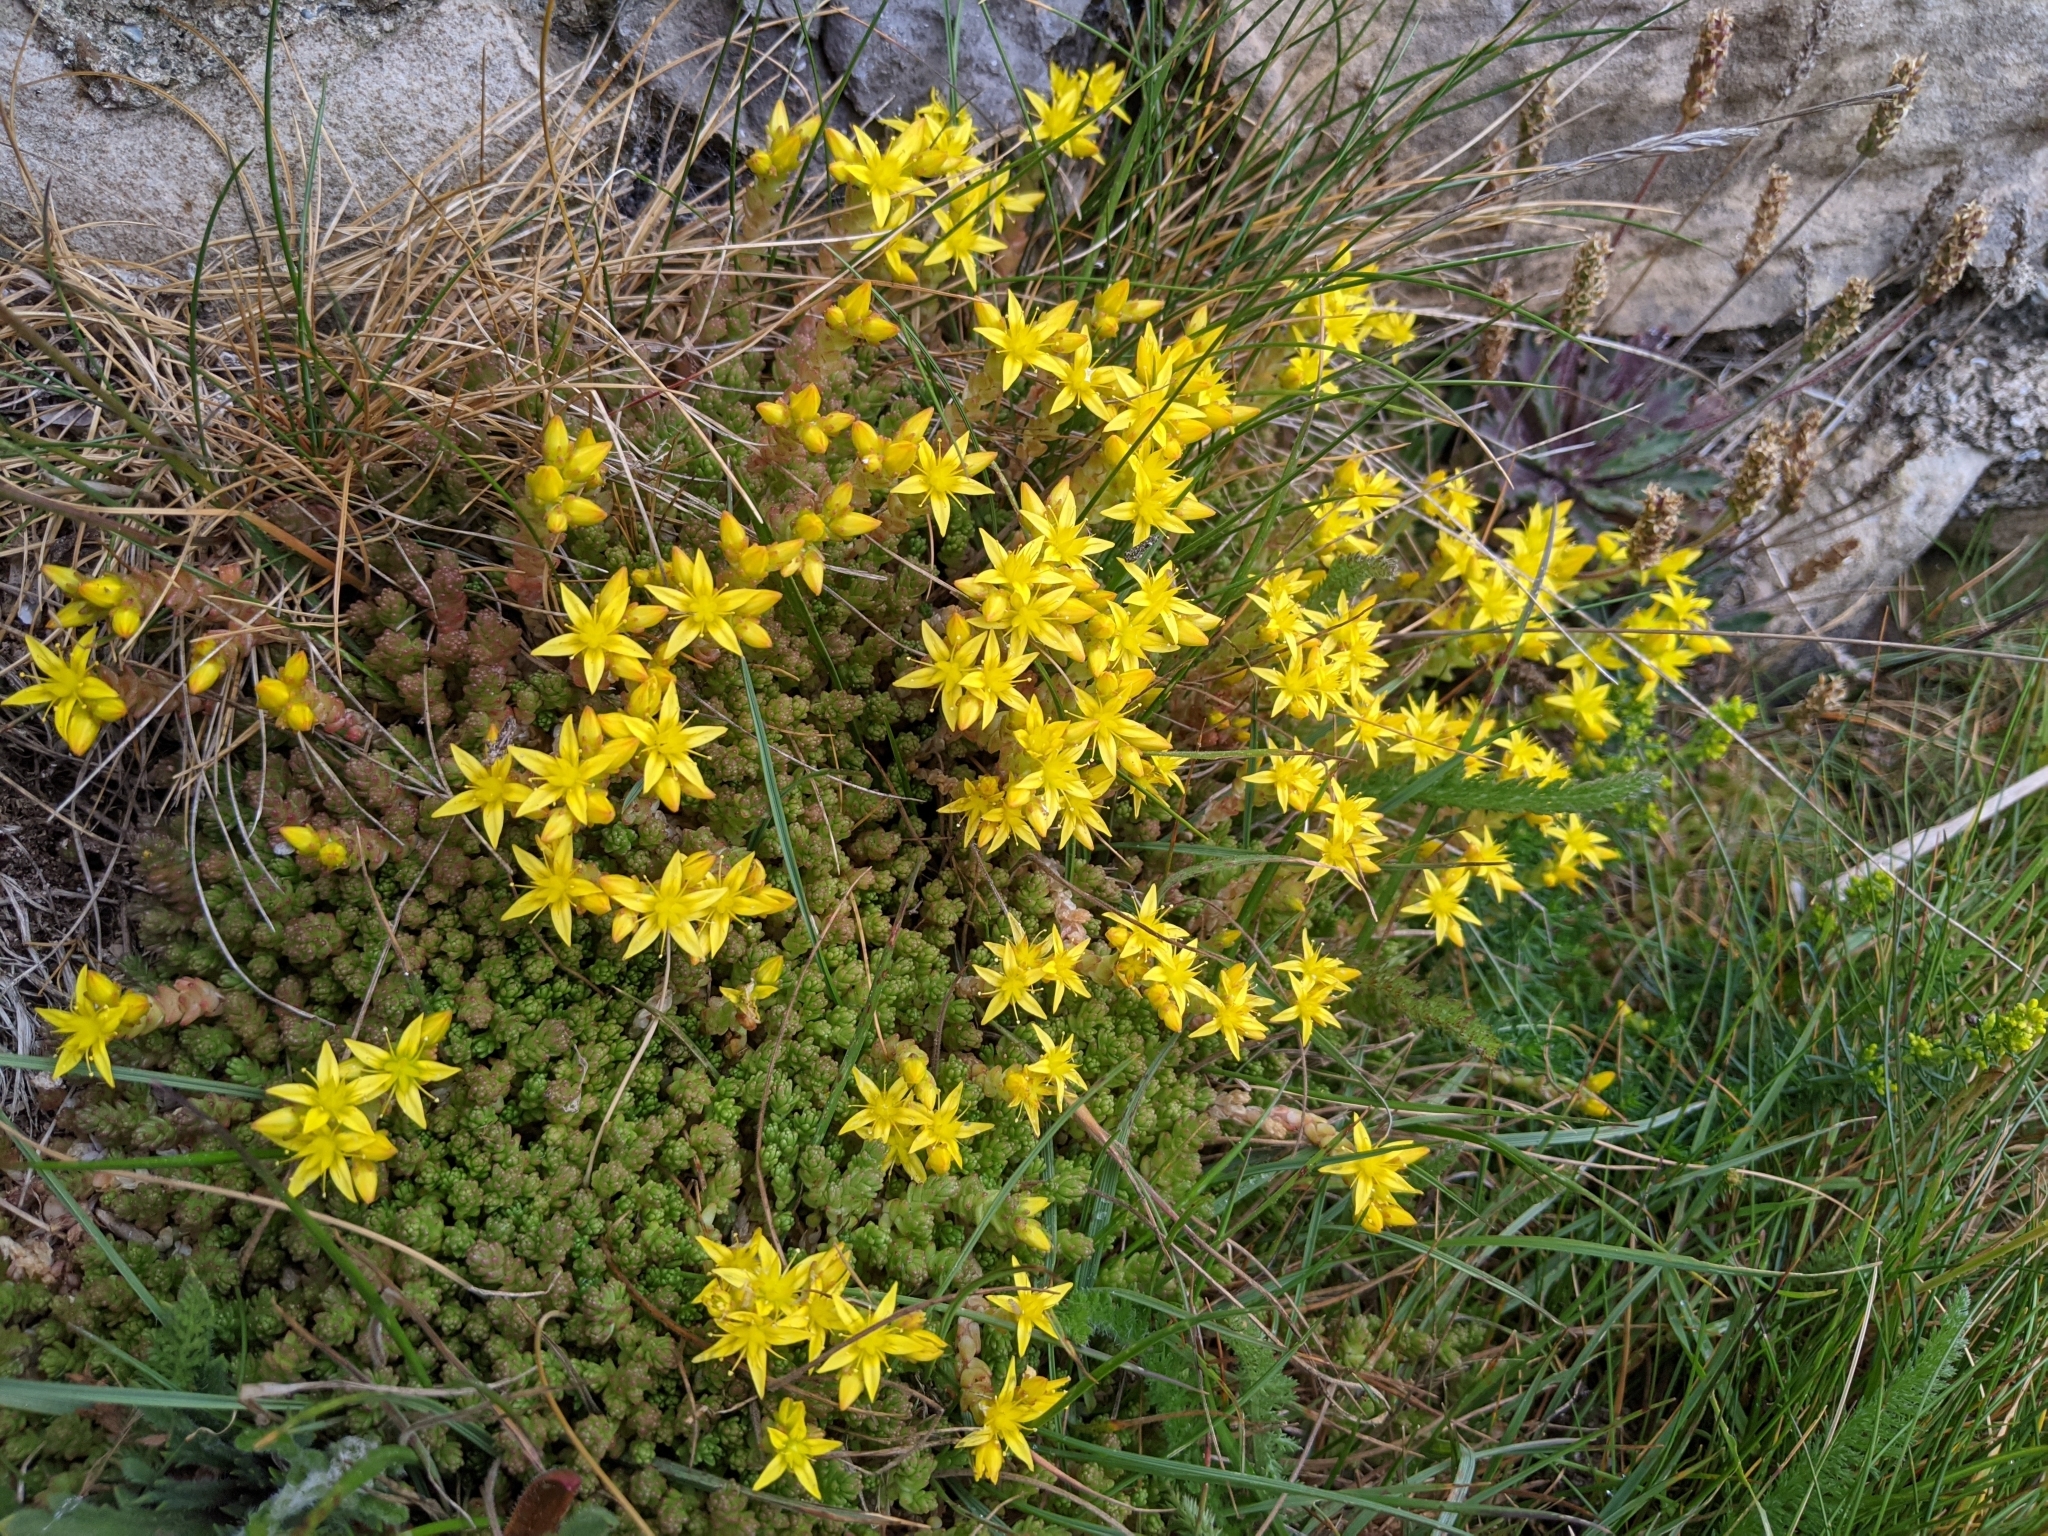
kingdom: Plantae
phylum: Tracheophyta
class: Magnoliopsida
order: Saxifragales
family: Crassulaceae
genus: Sedum
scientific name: Sedum acre
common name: Biting stonecrop
